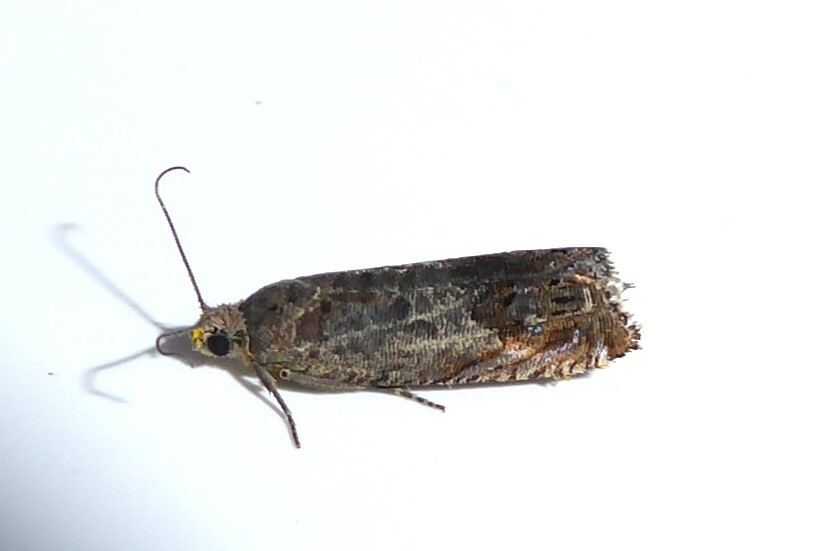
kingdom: Animalia
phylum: Arthropoda
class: Insecta
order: Lepidoptera
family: Tortricidae
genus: Cydia
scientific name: Cydia succedana
